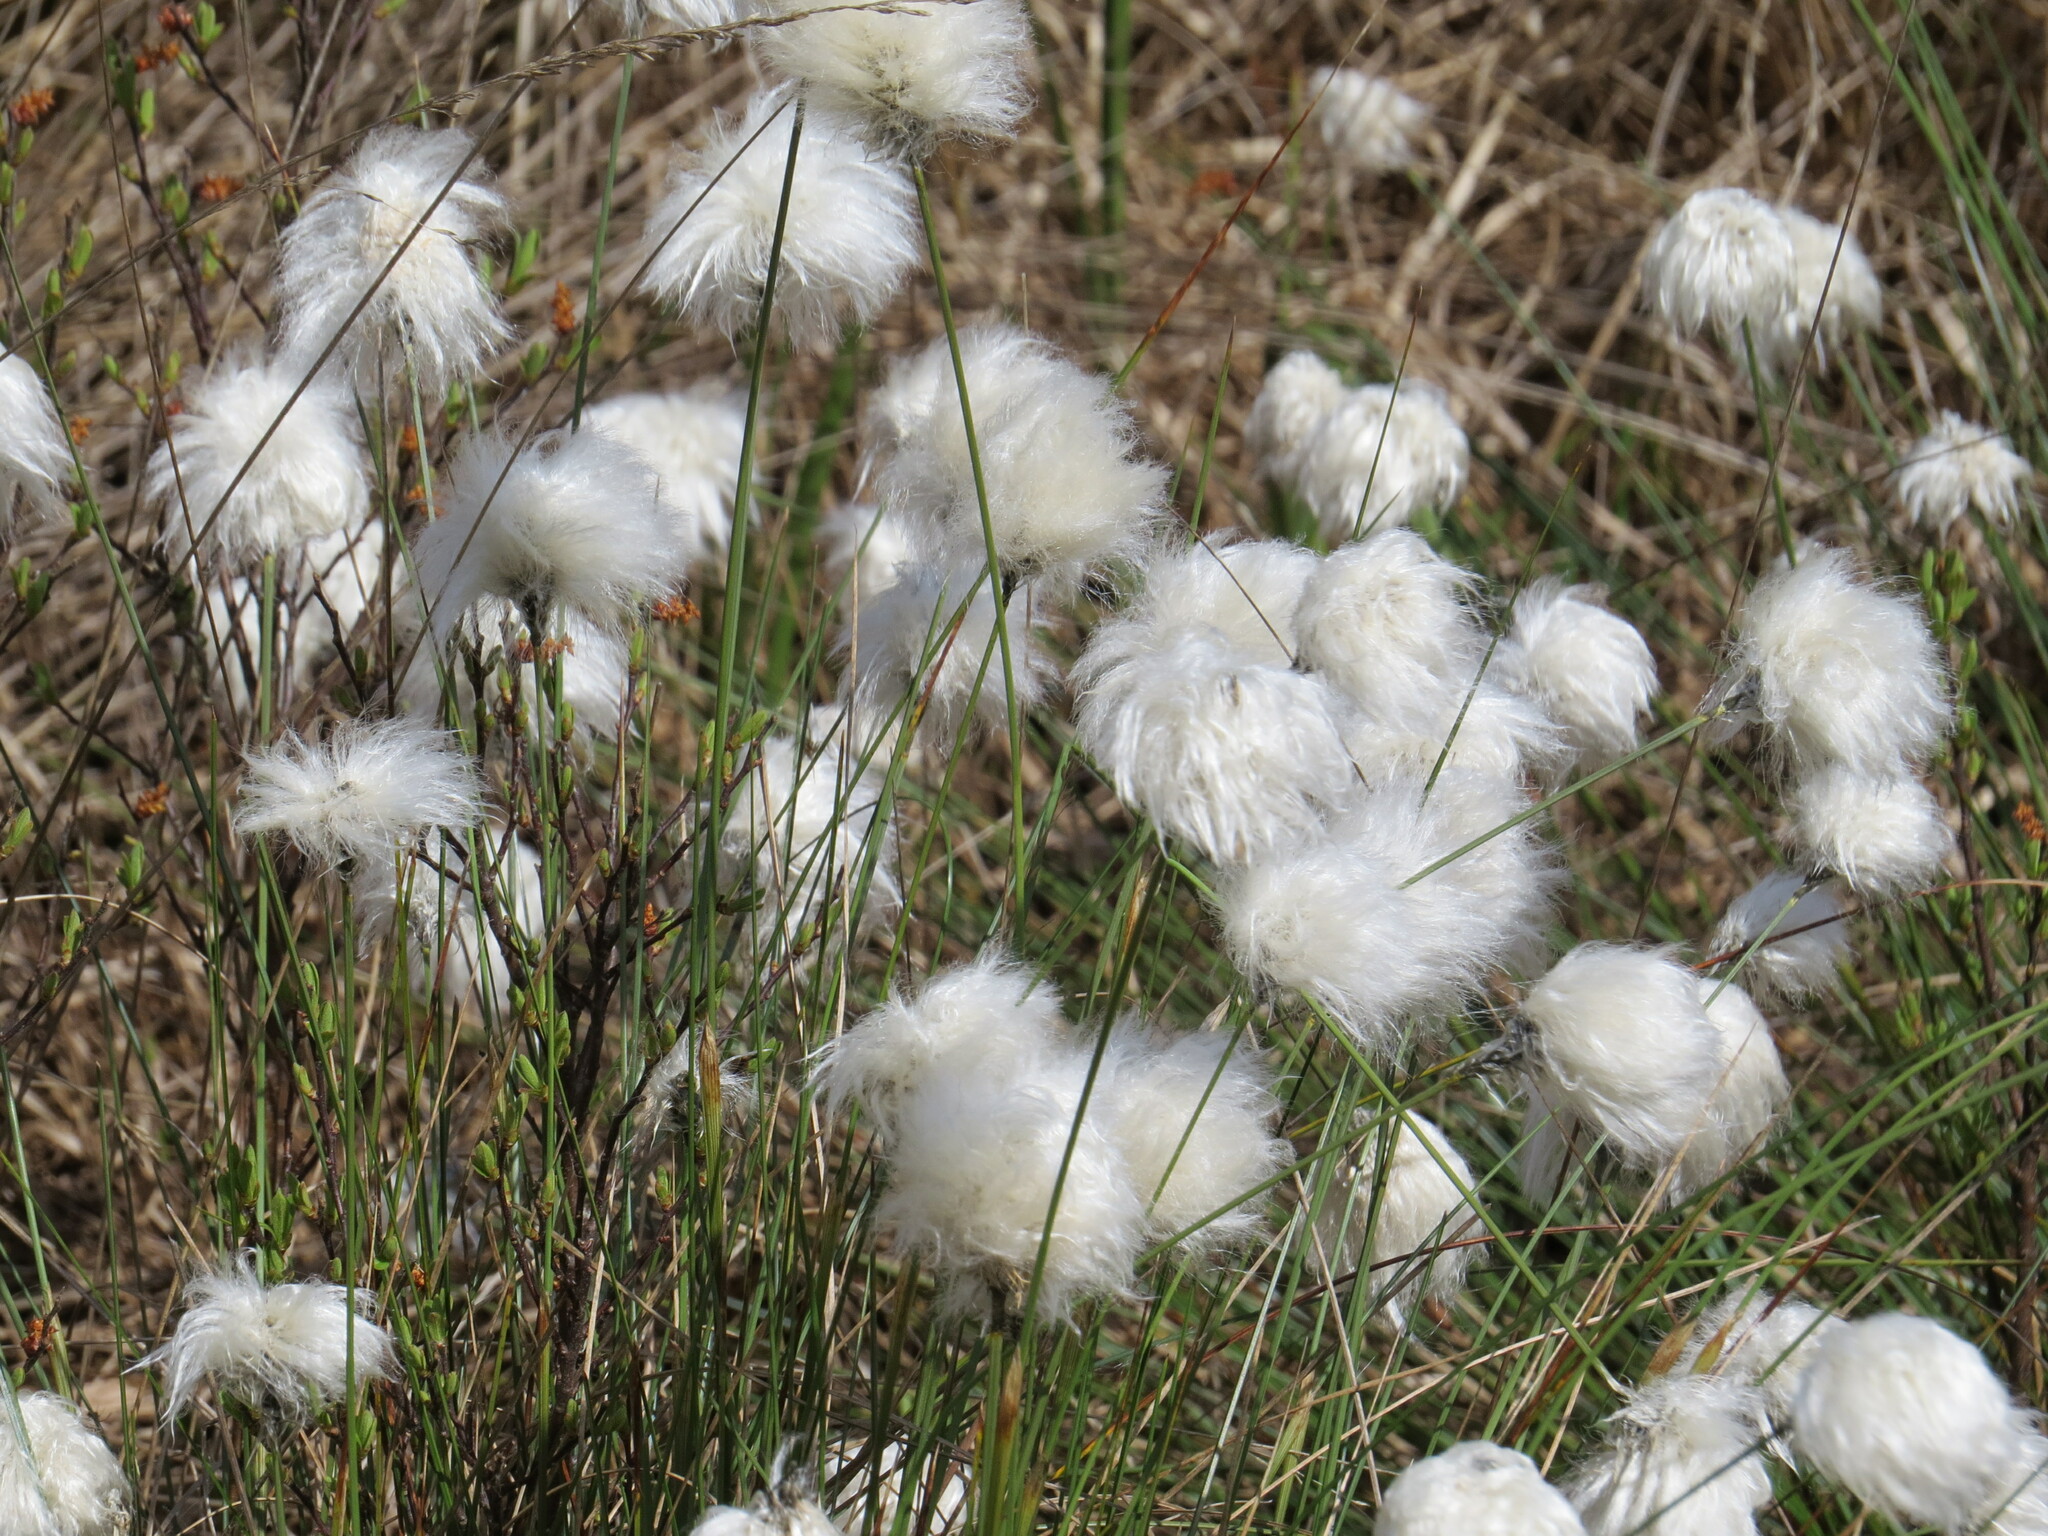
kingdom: Plantae
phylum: Tracheophyta
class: Liliopsida
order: Poales
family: Cyperaceae
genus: Eriophorum
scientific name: Eriophorum vaginatum
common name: Hare's-tail cottongrass
